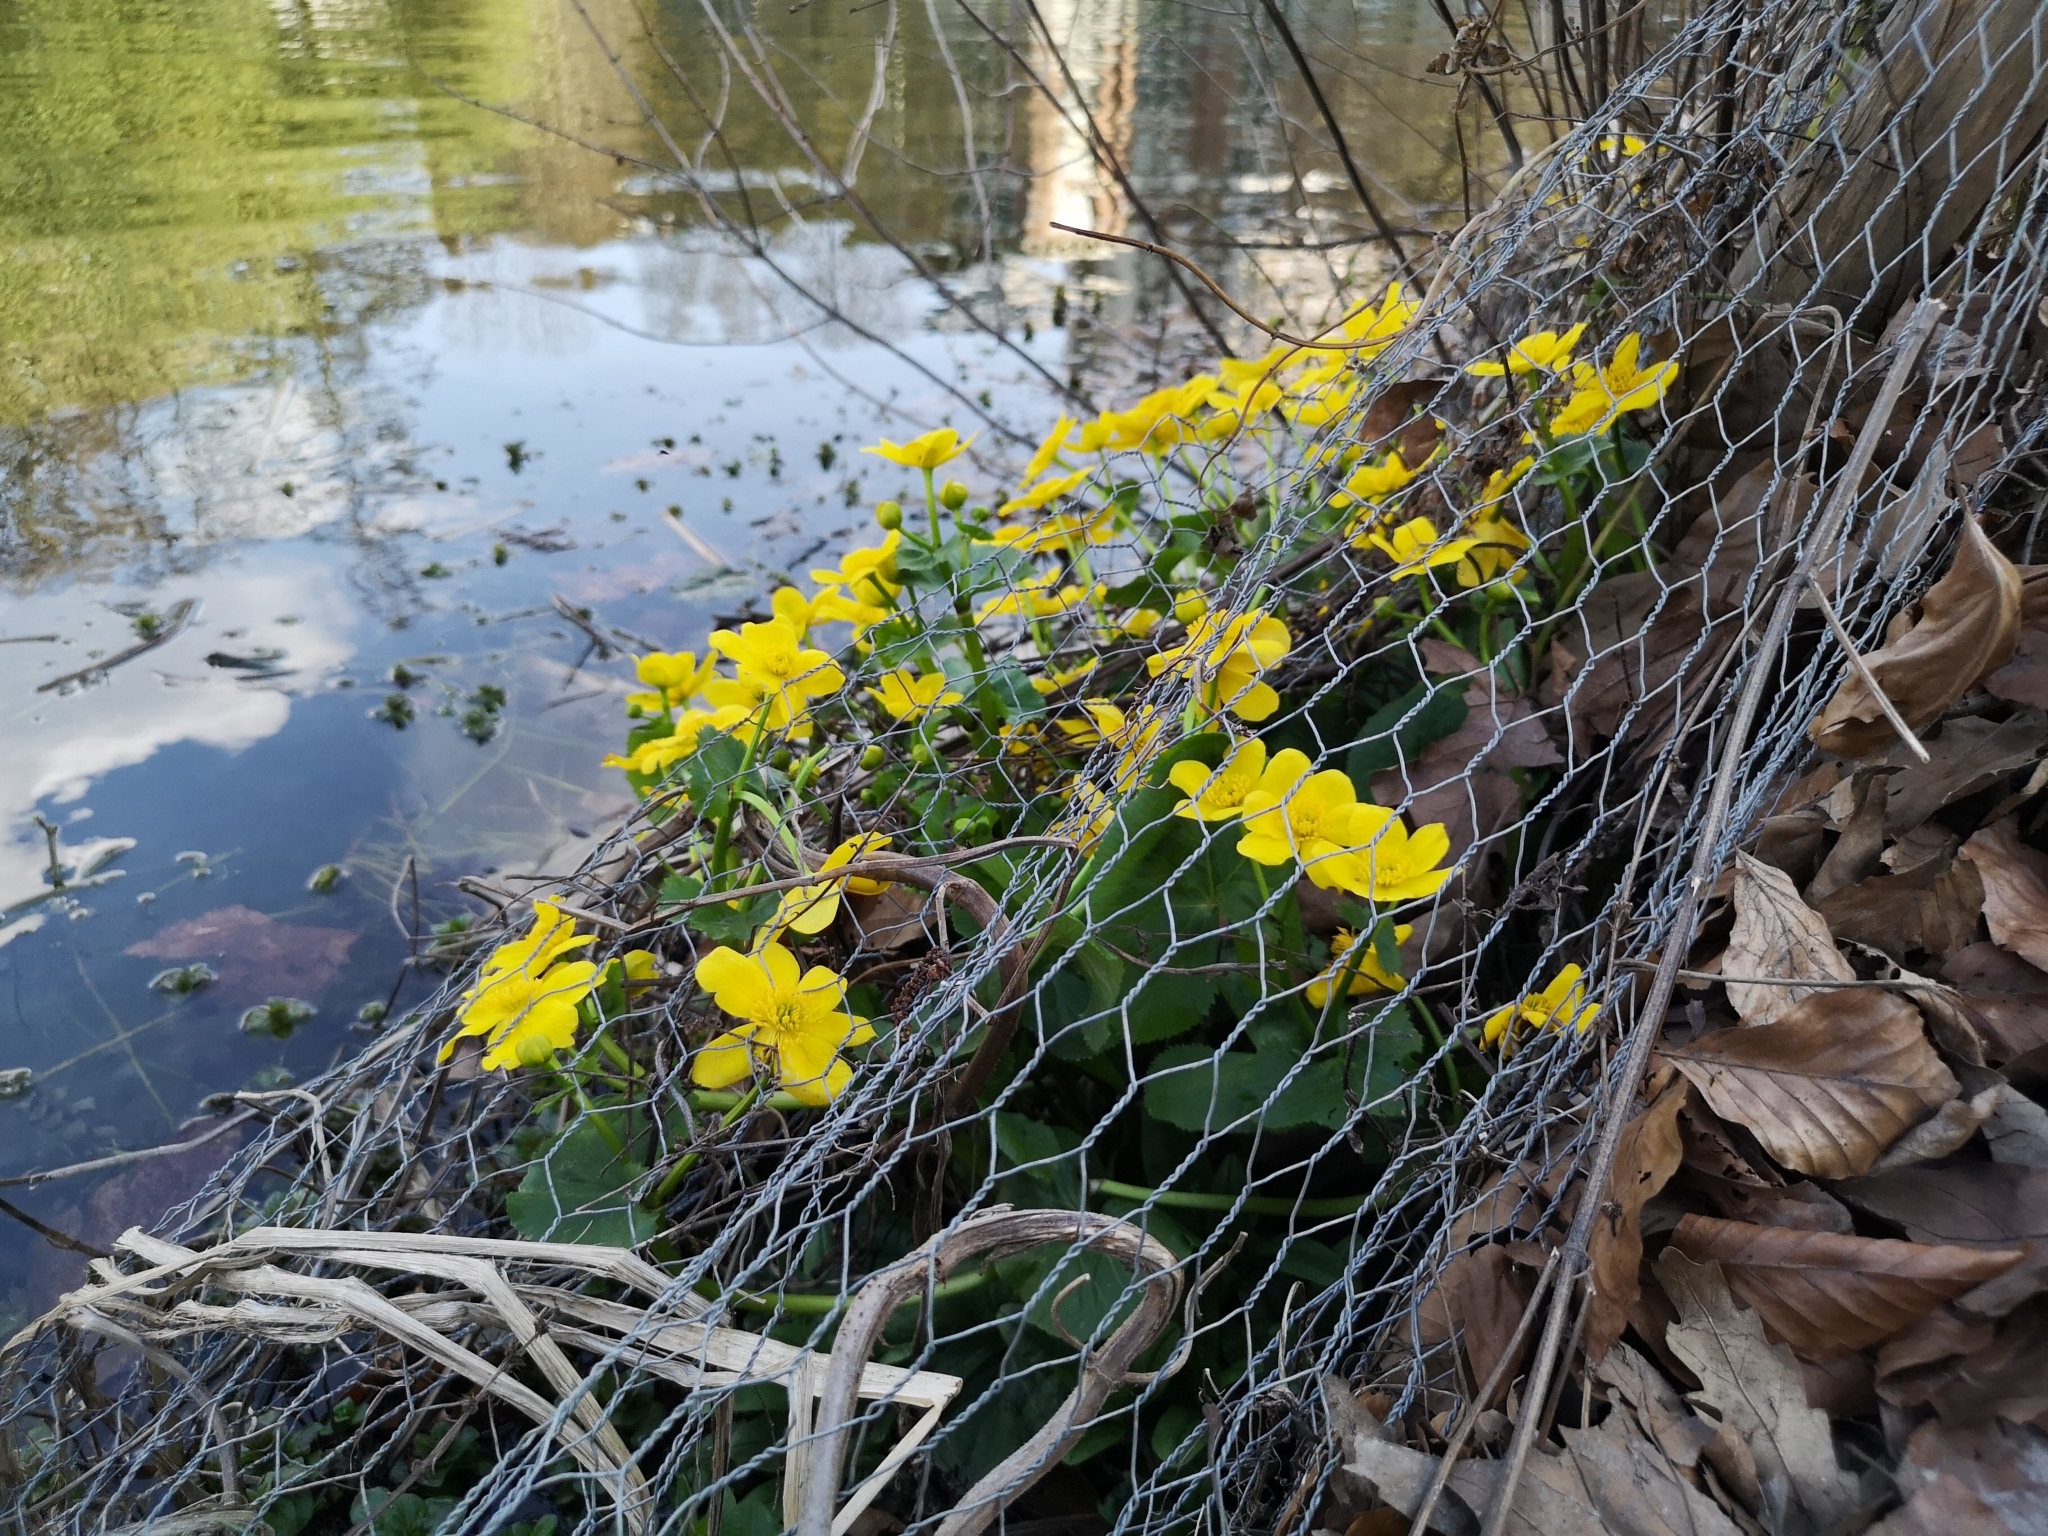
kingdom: Plantae
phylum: Tracheophyta
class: Magnoliopsida
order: Ranunculales
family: Ranunculaceae
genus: Caltha
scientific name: Caltha palustris
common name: Marsh marigold
